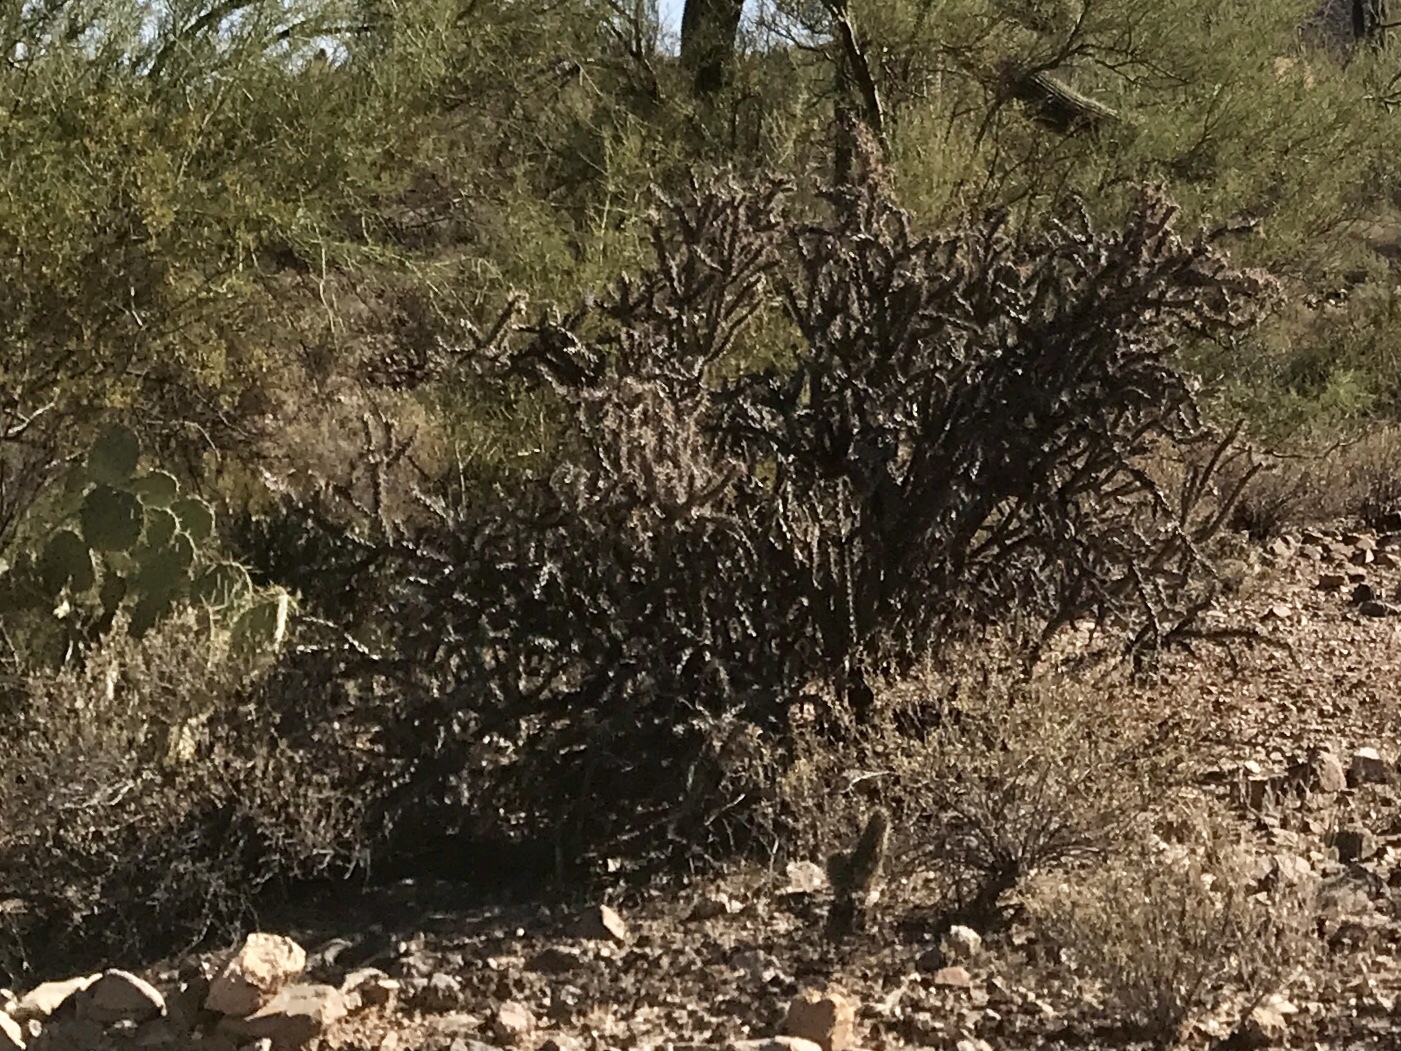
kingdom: Plantae
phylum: Tracheophyta
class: Magnoliopsida
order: Caryophyllales
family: Cactaceae
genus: Cylindropuntia
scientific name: Cylindropuntia thurberi
